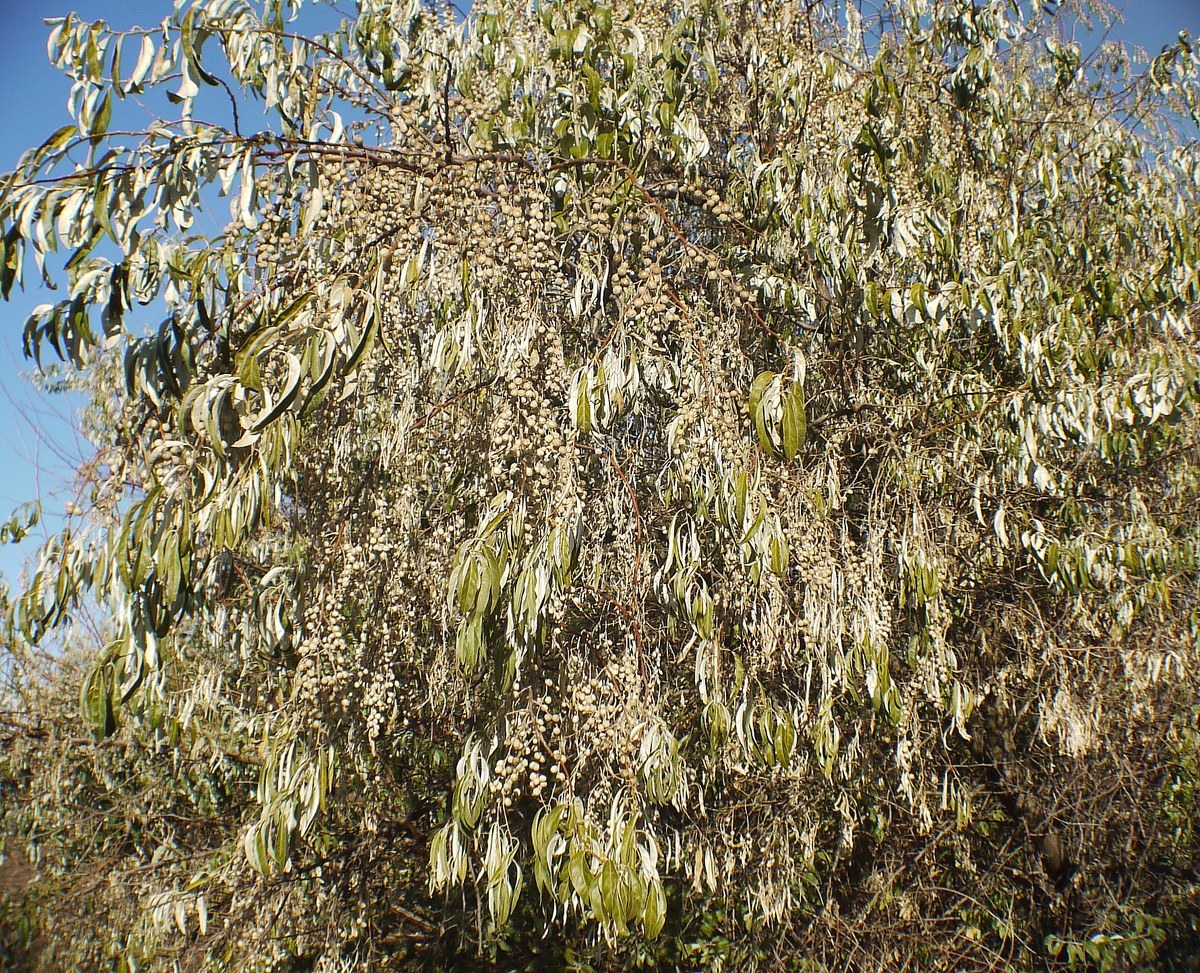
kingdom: Plantae
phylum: Tracheophyta
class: Magnoliopsida
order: Rosales
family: Elaeagnaceae
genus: Elaeagnus
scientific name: Elaeagnus angustifolia
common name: Russian olive
